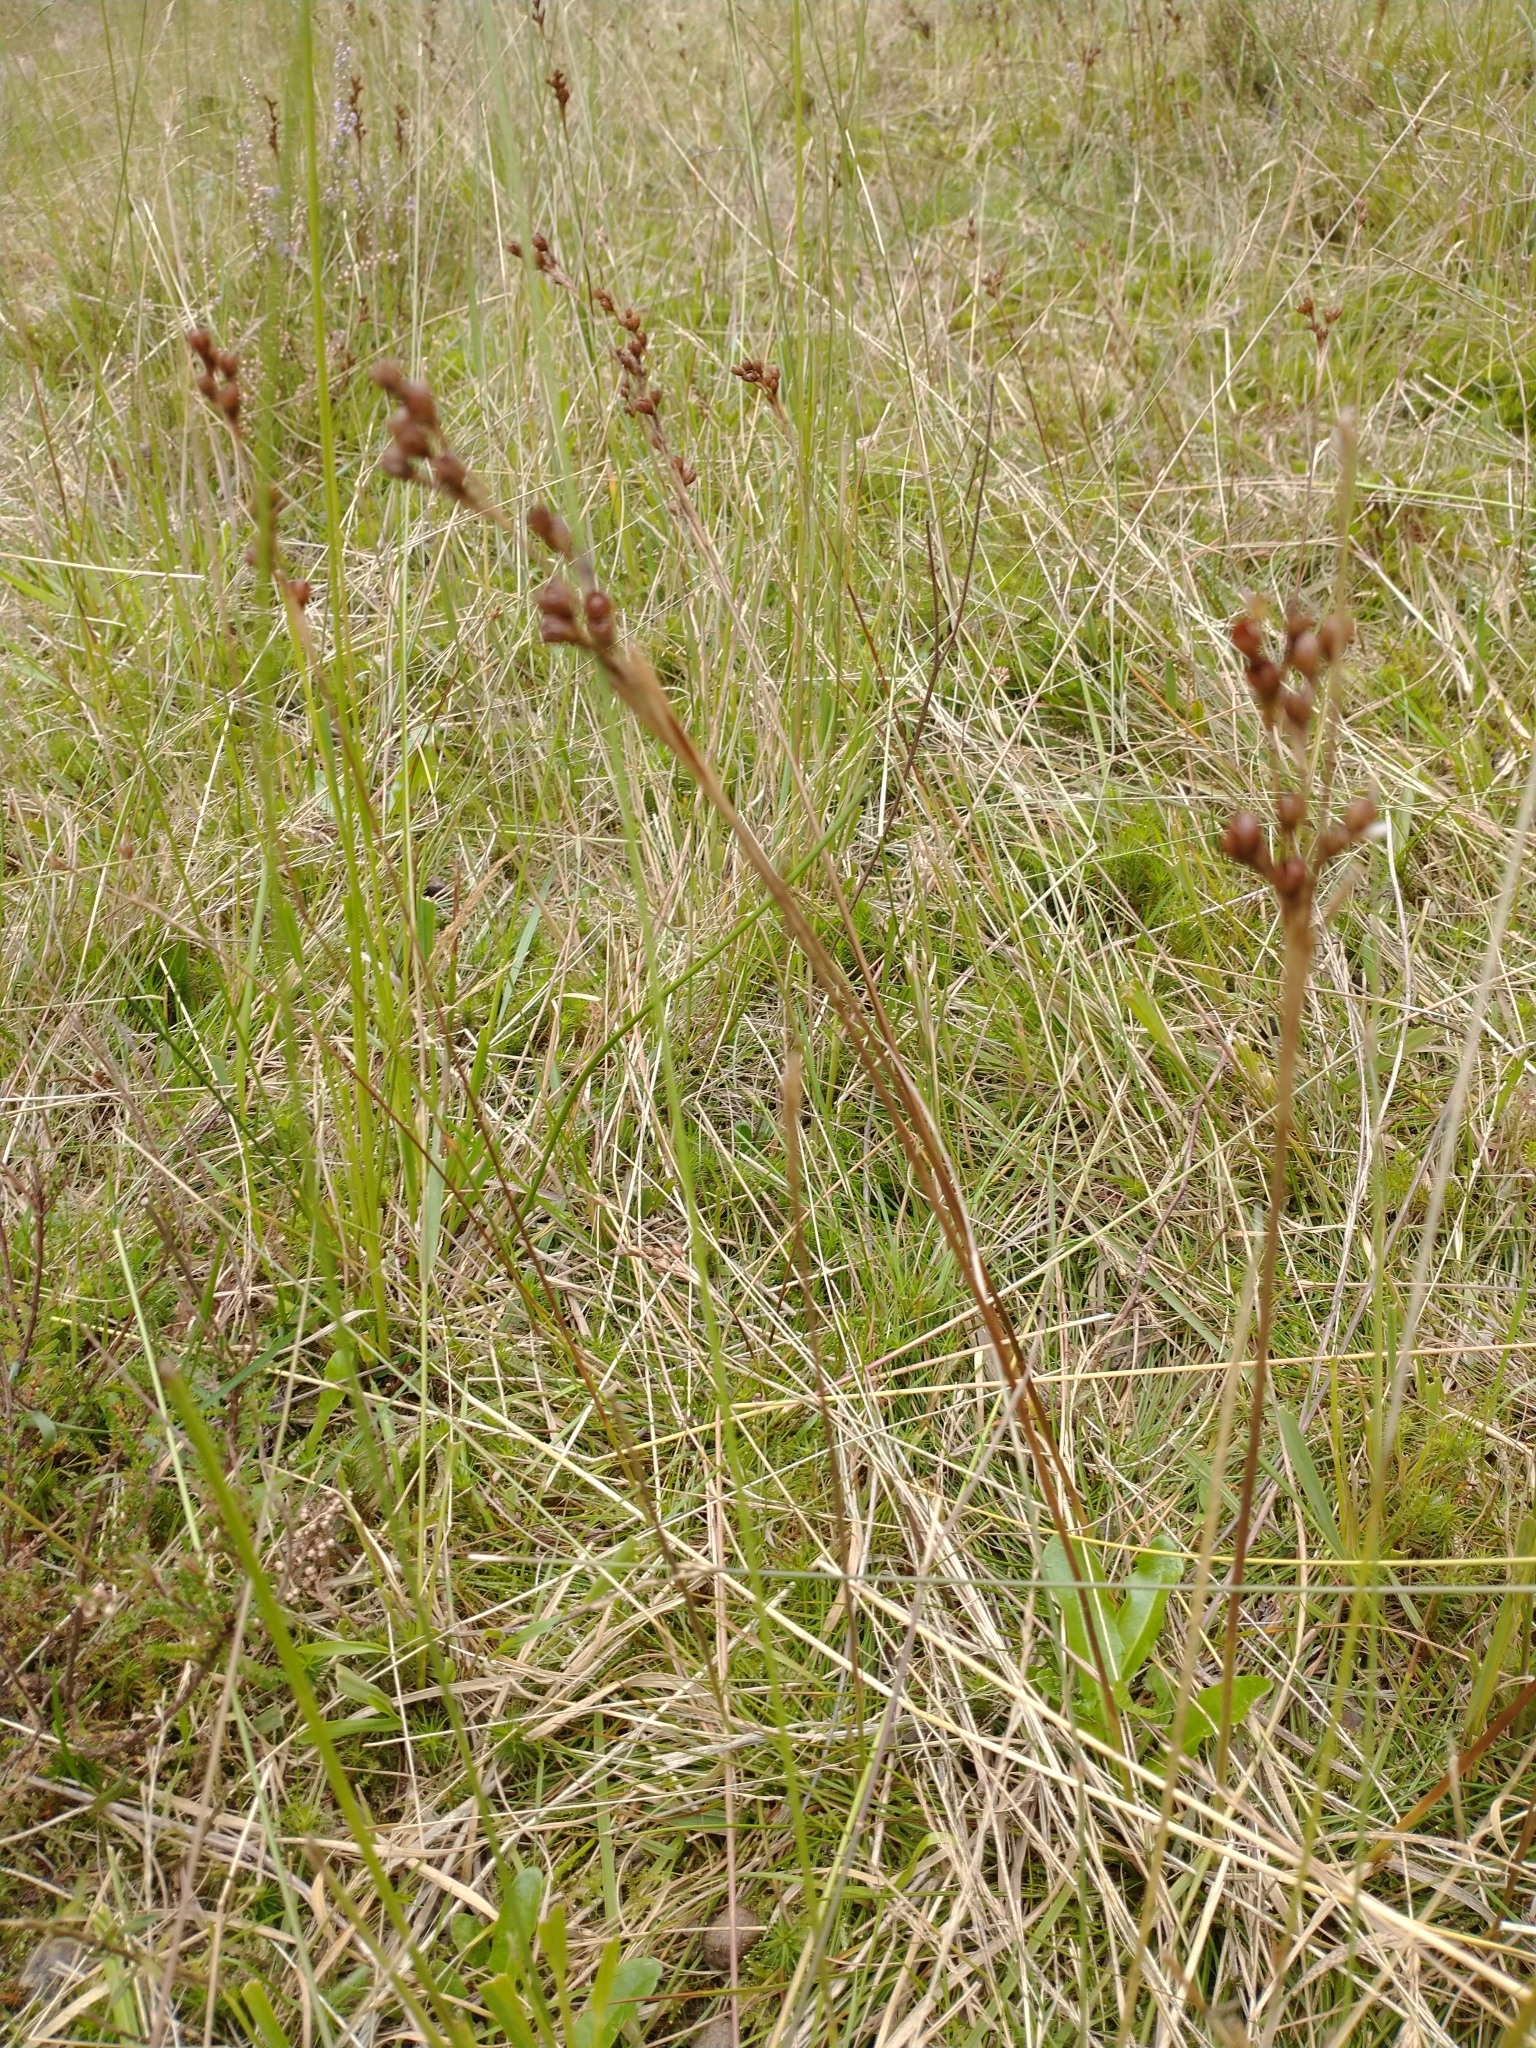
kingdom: Plantae
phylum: Tracheophyta
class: Liliopsida
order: Poales
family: Juncaceae
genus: Juncus
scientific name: Juncus squarrosus
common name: Heath rush
